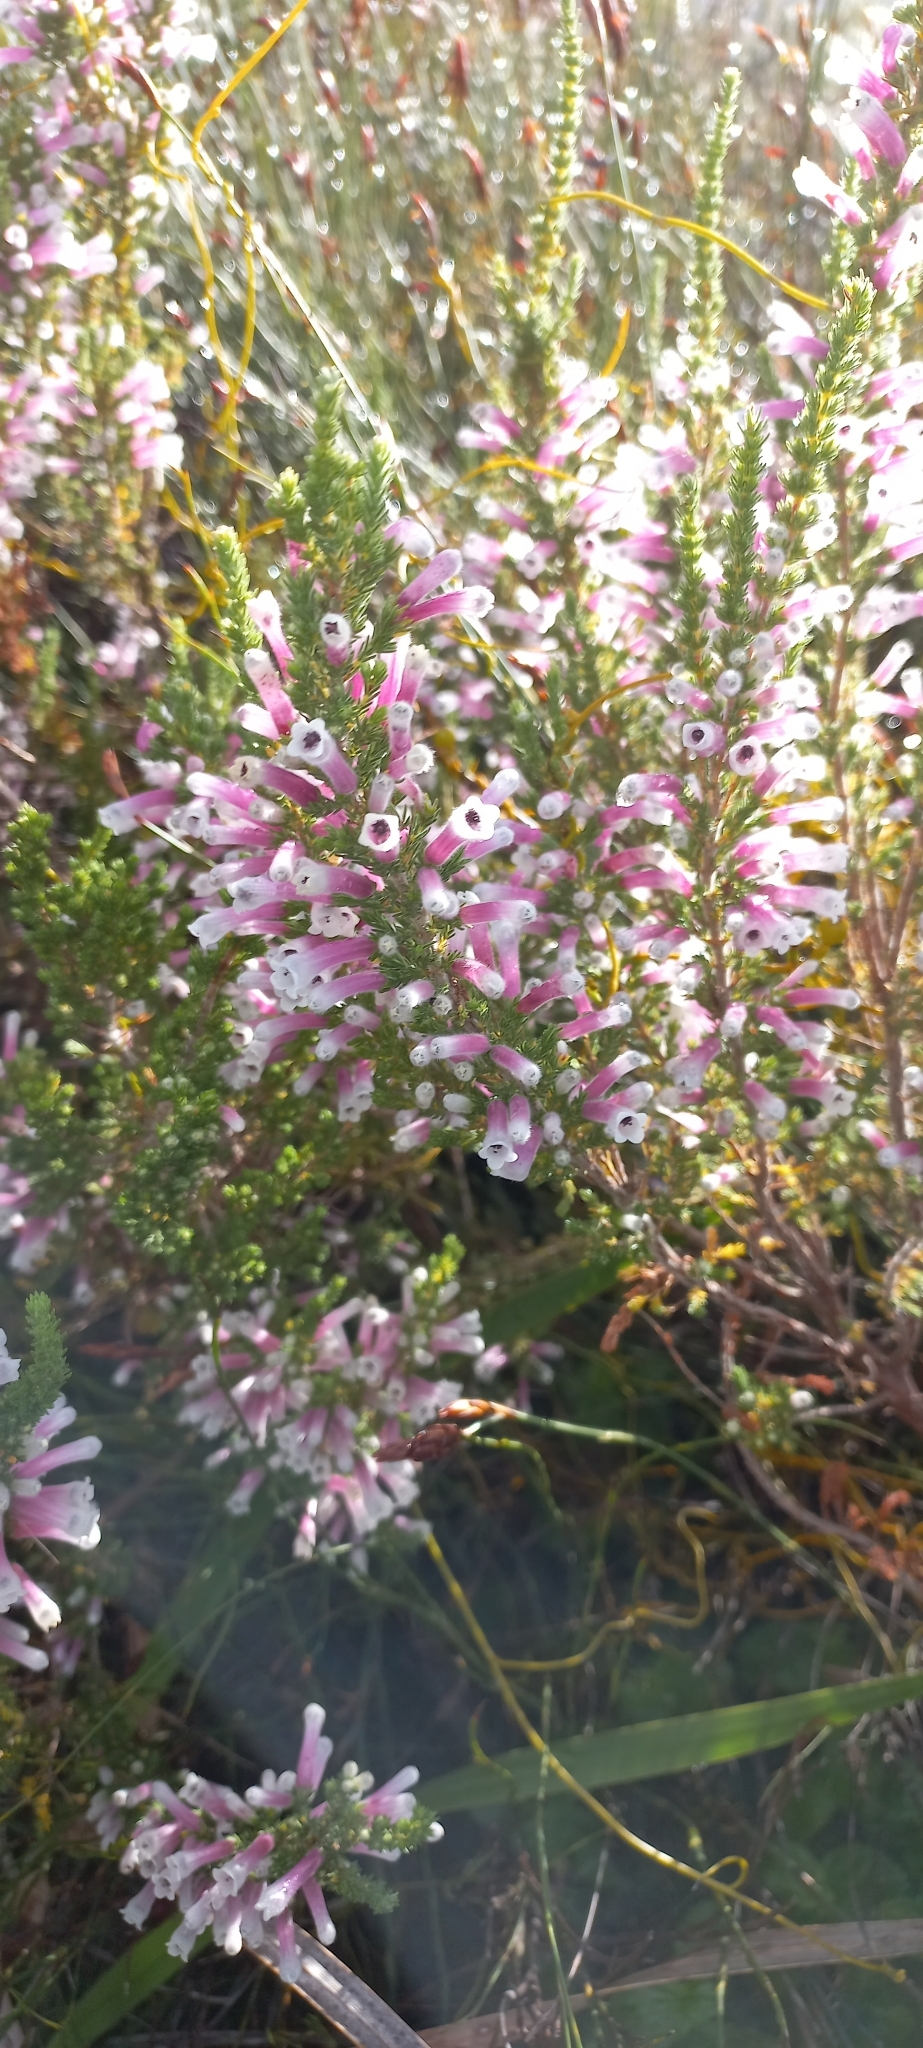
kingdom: Plantae
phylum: Tracheophyta
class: Magnoliopsida
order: Ericales
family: Ericaceae
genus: Erica
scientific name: Erica perspicua
